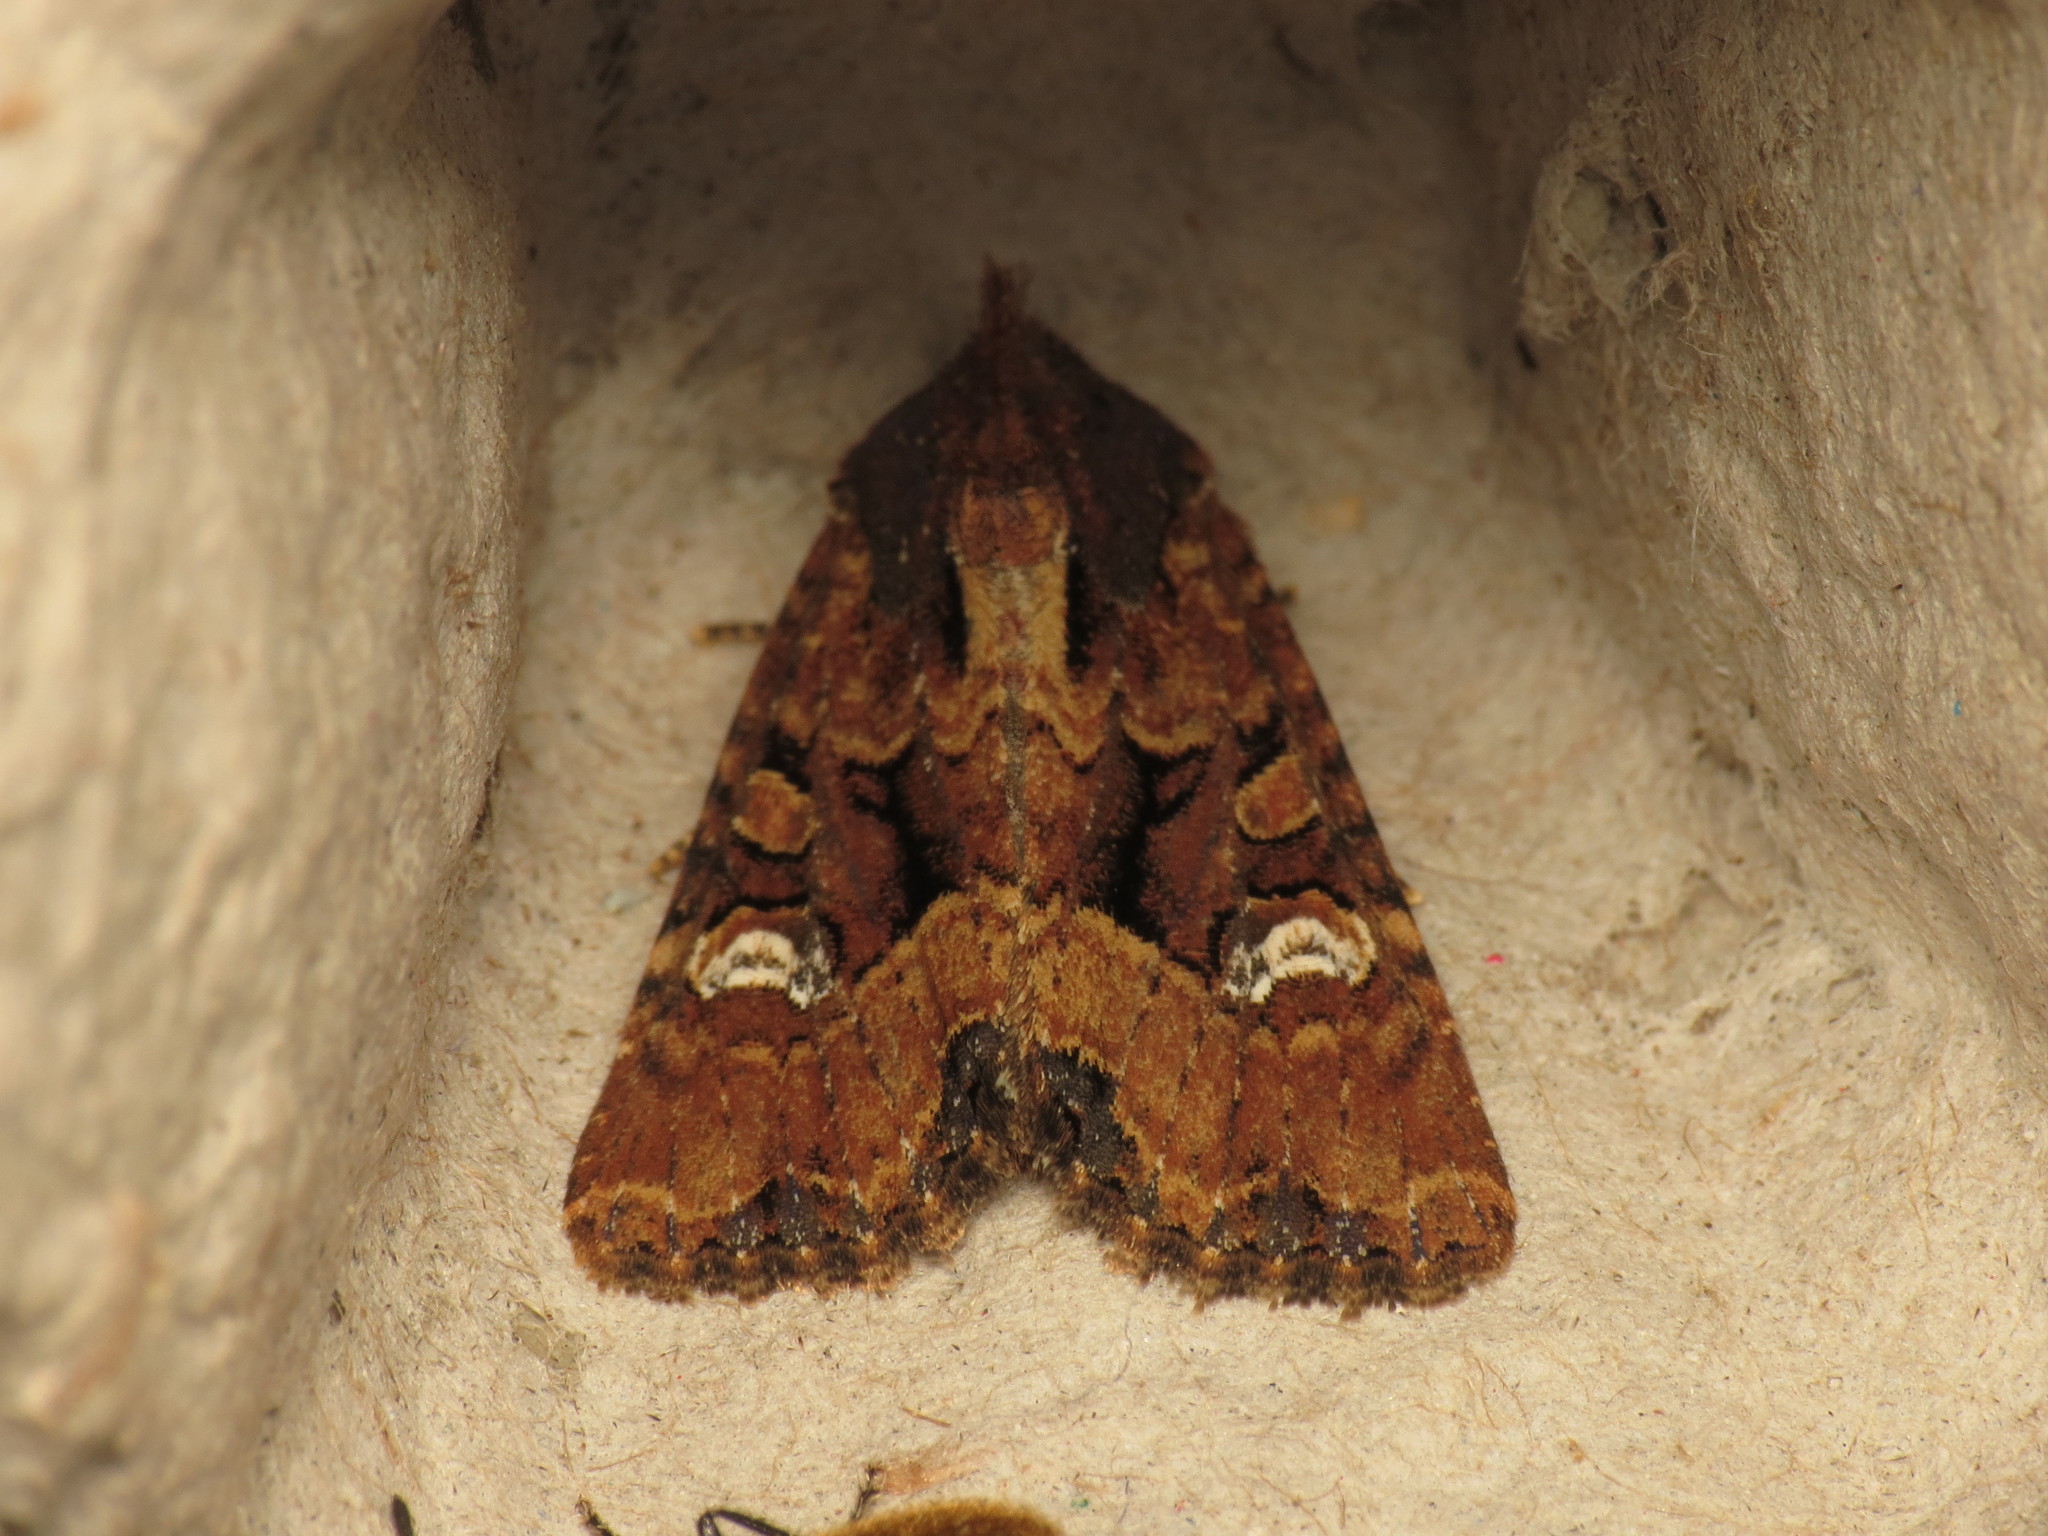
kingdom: Animalia
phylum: Arthropoda
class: Insecta
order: Lepidoptera
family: Noctuidae
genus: Mesapamea
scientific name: Mesapamea
